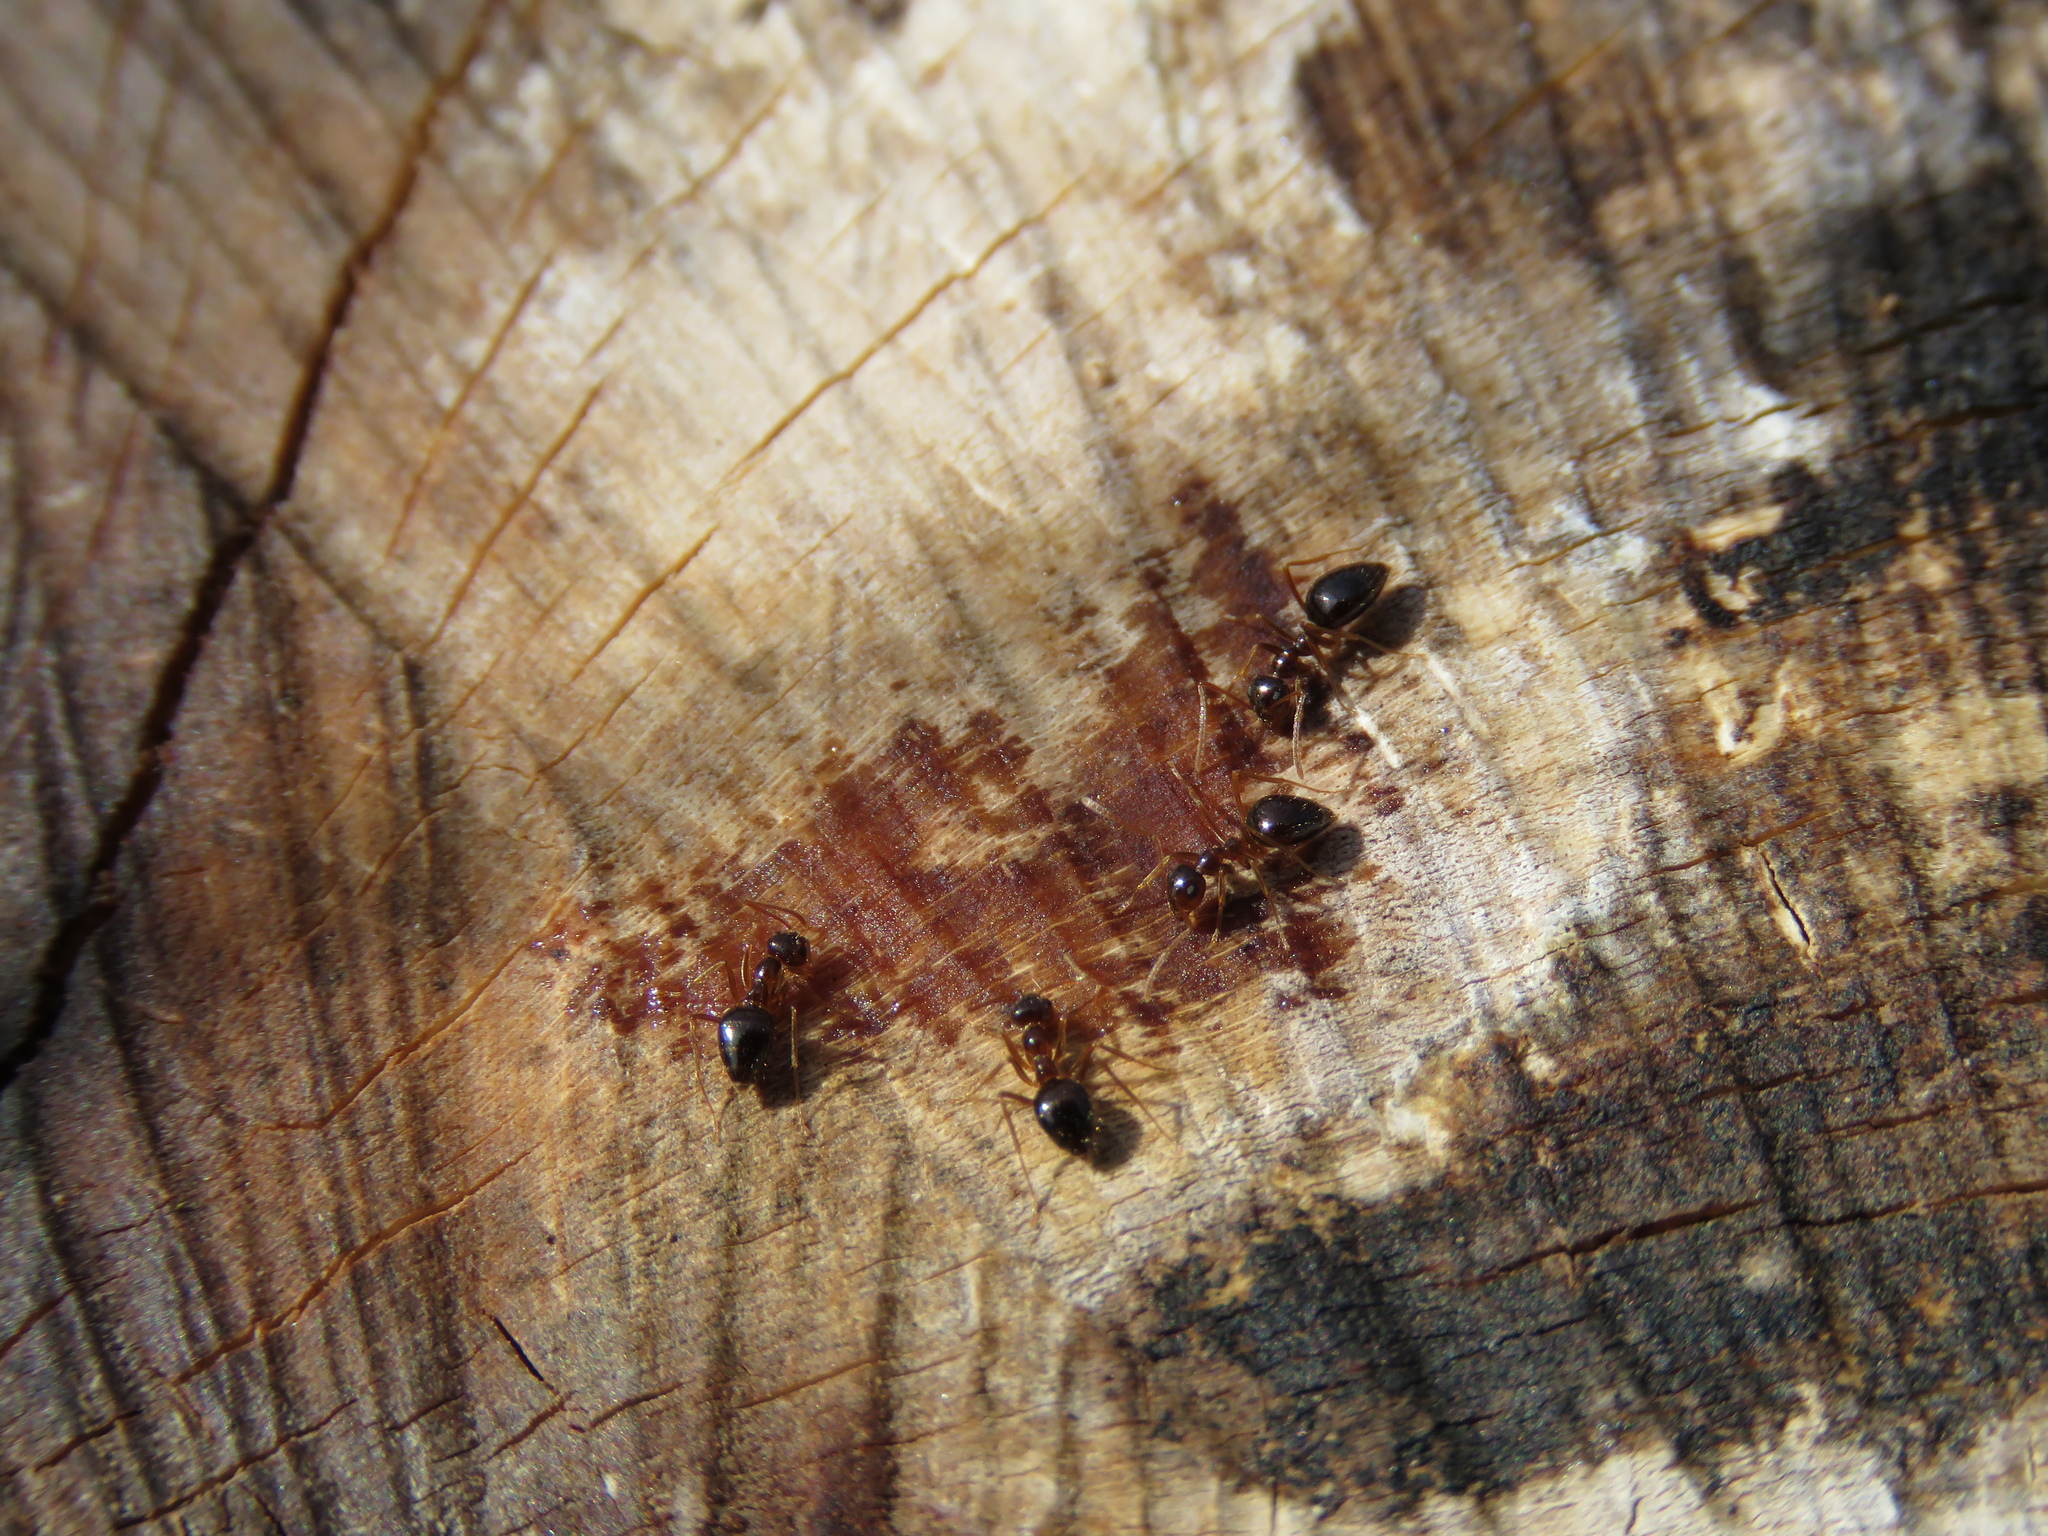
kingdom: Animalia
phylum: Arthropoda
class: Insecta
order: Hymenoptera
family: Formicidae
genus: Prenolepis
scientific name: Prenolepis imparis
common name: Small honey ant
